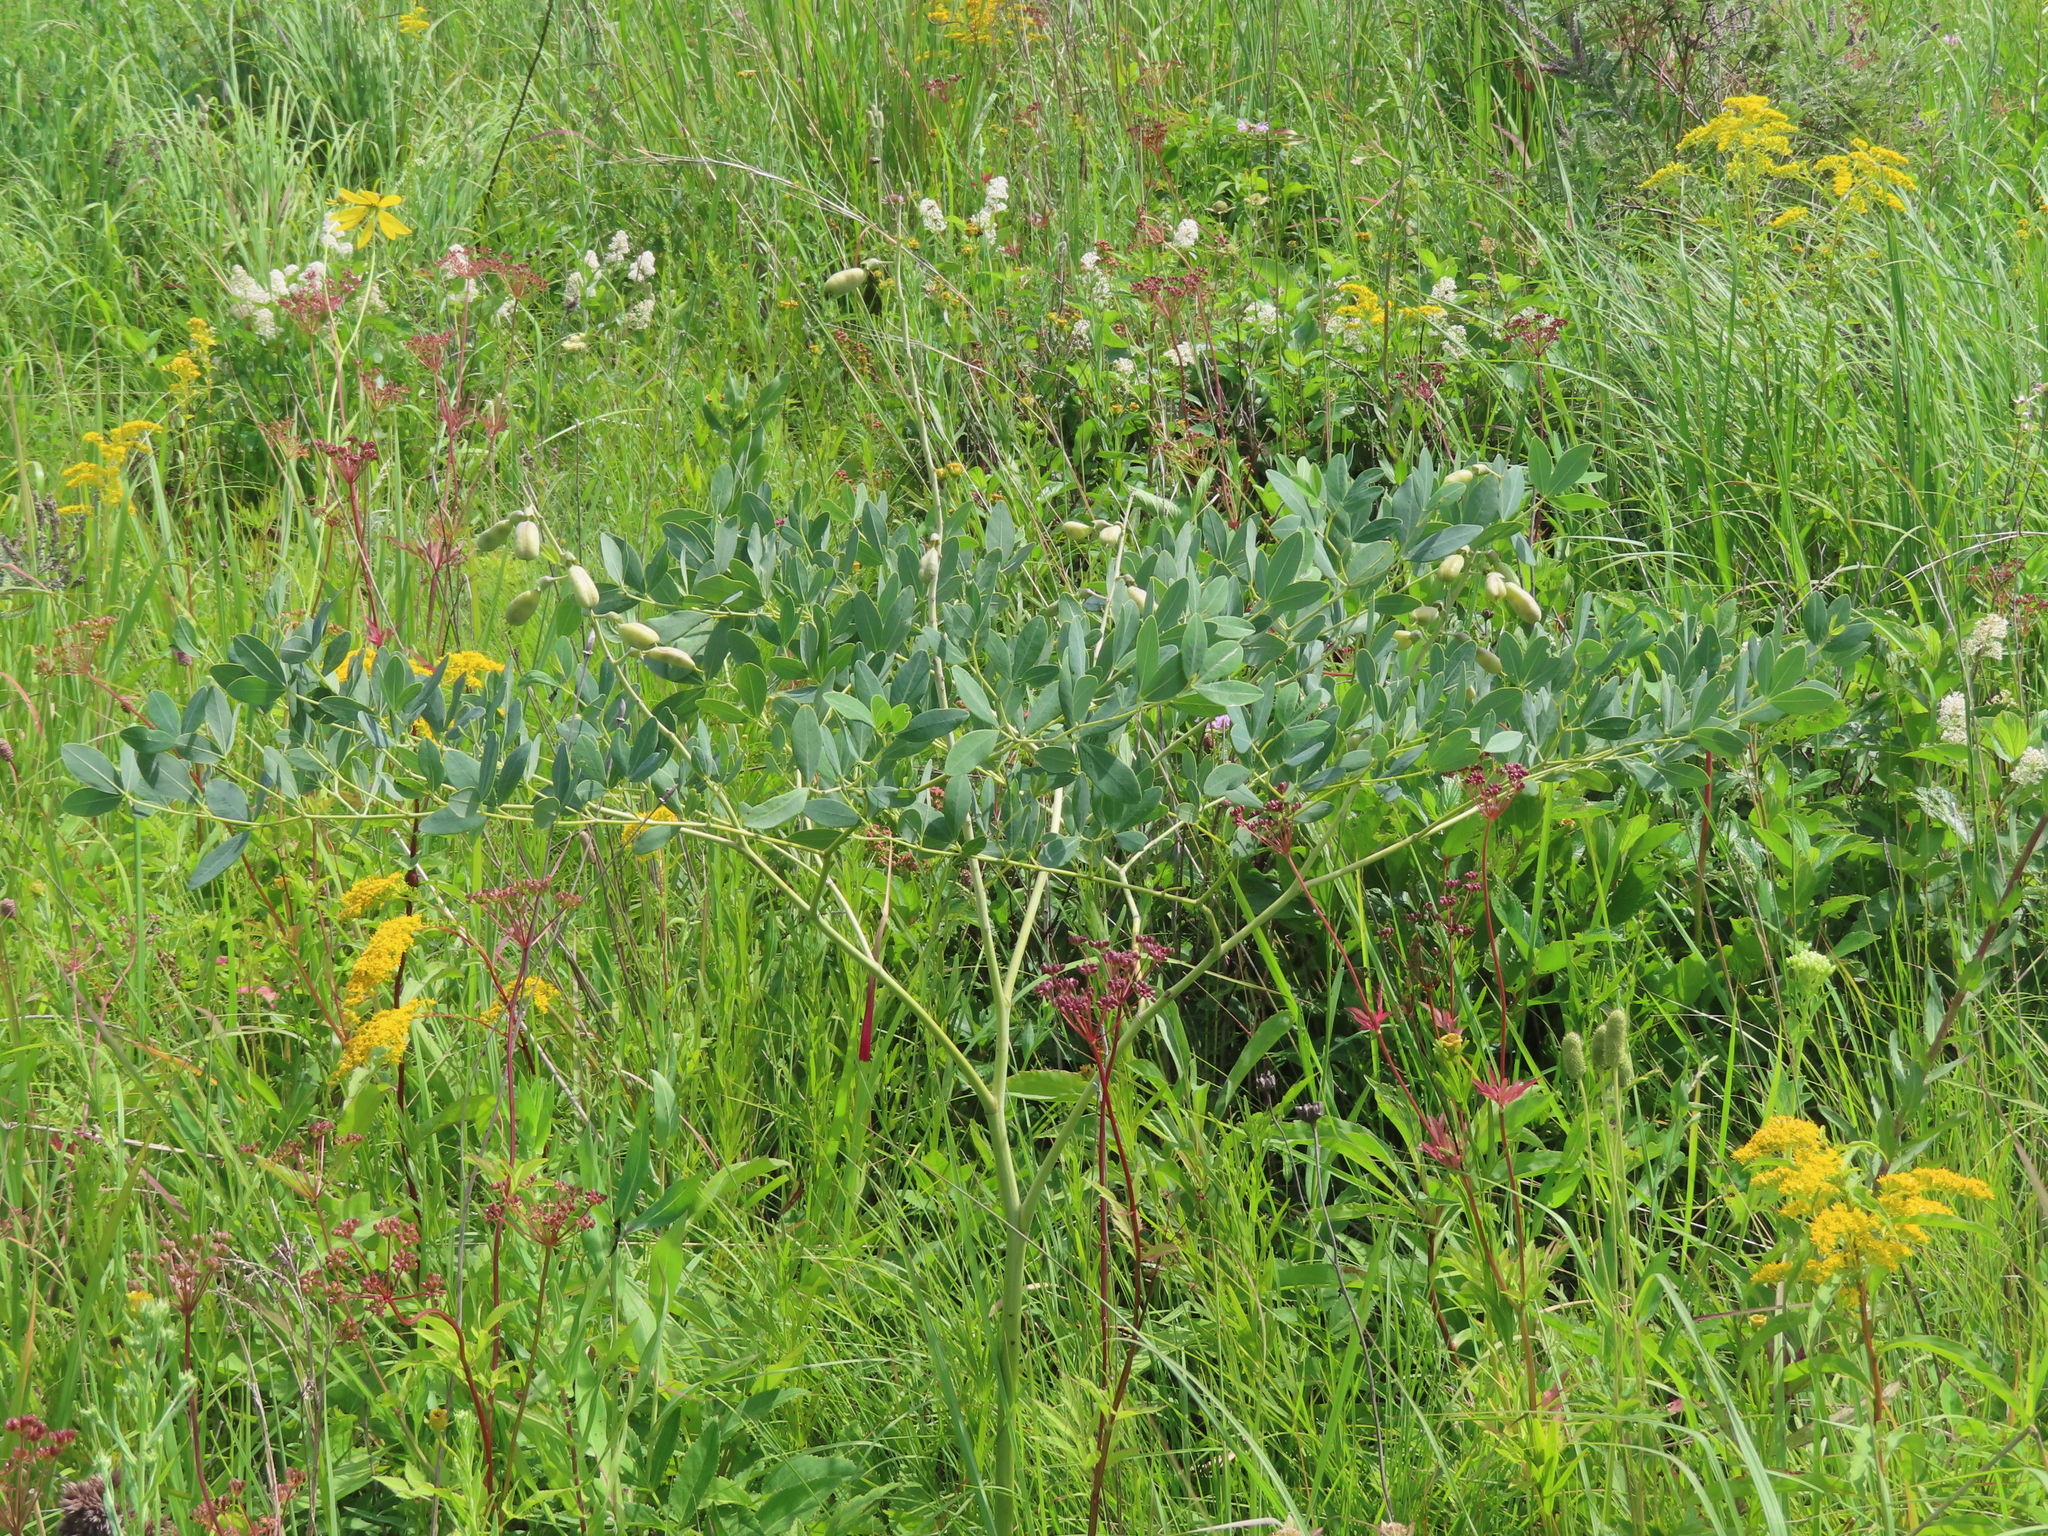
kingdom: Plantae
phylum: Tracheophyta
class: Magnoliopsida
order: Fabales
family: Fabaceae
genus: Baptisia
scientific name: Baptisia alba
